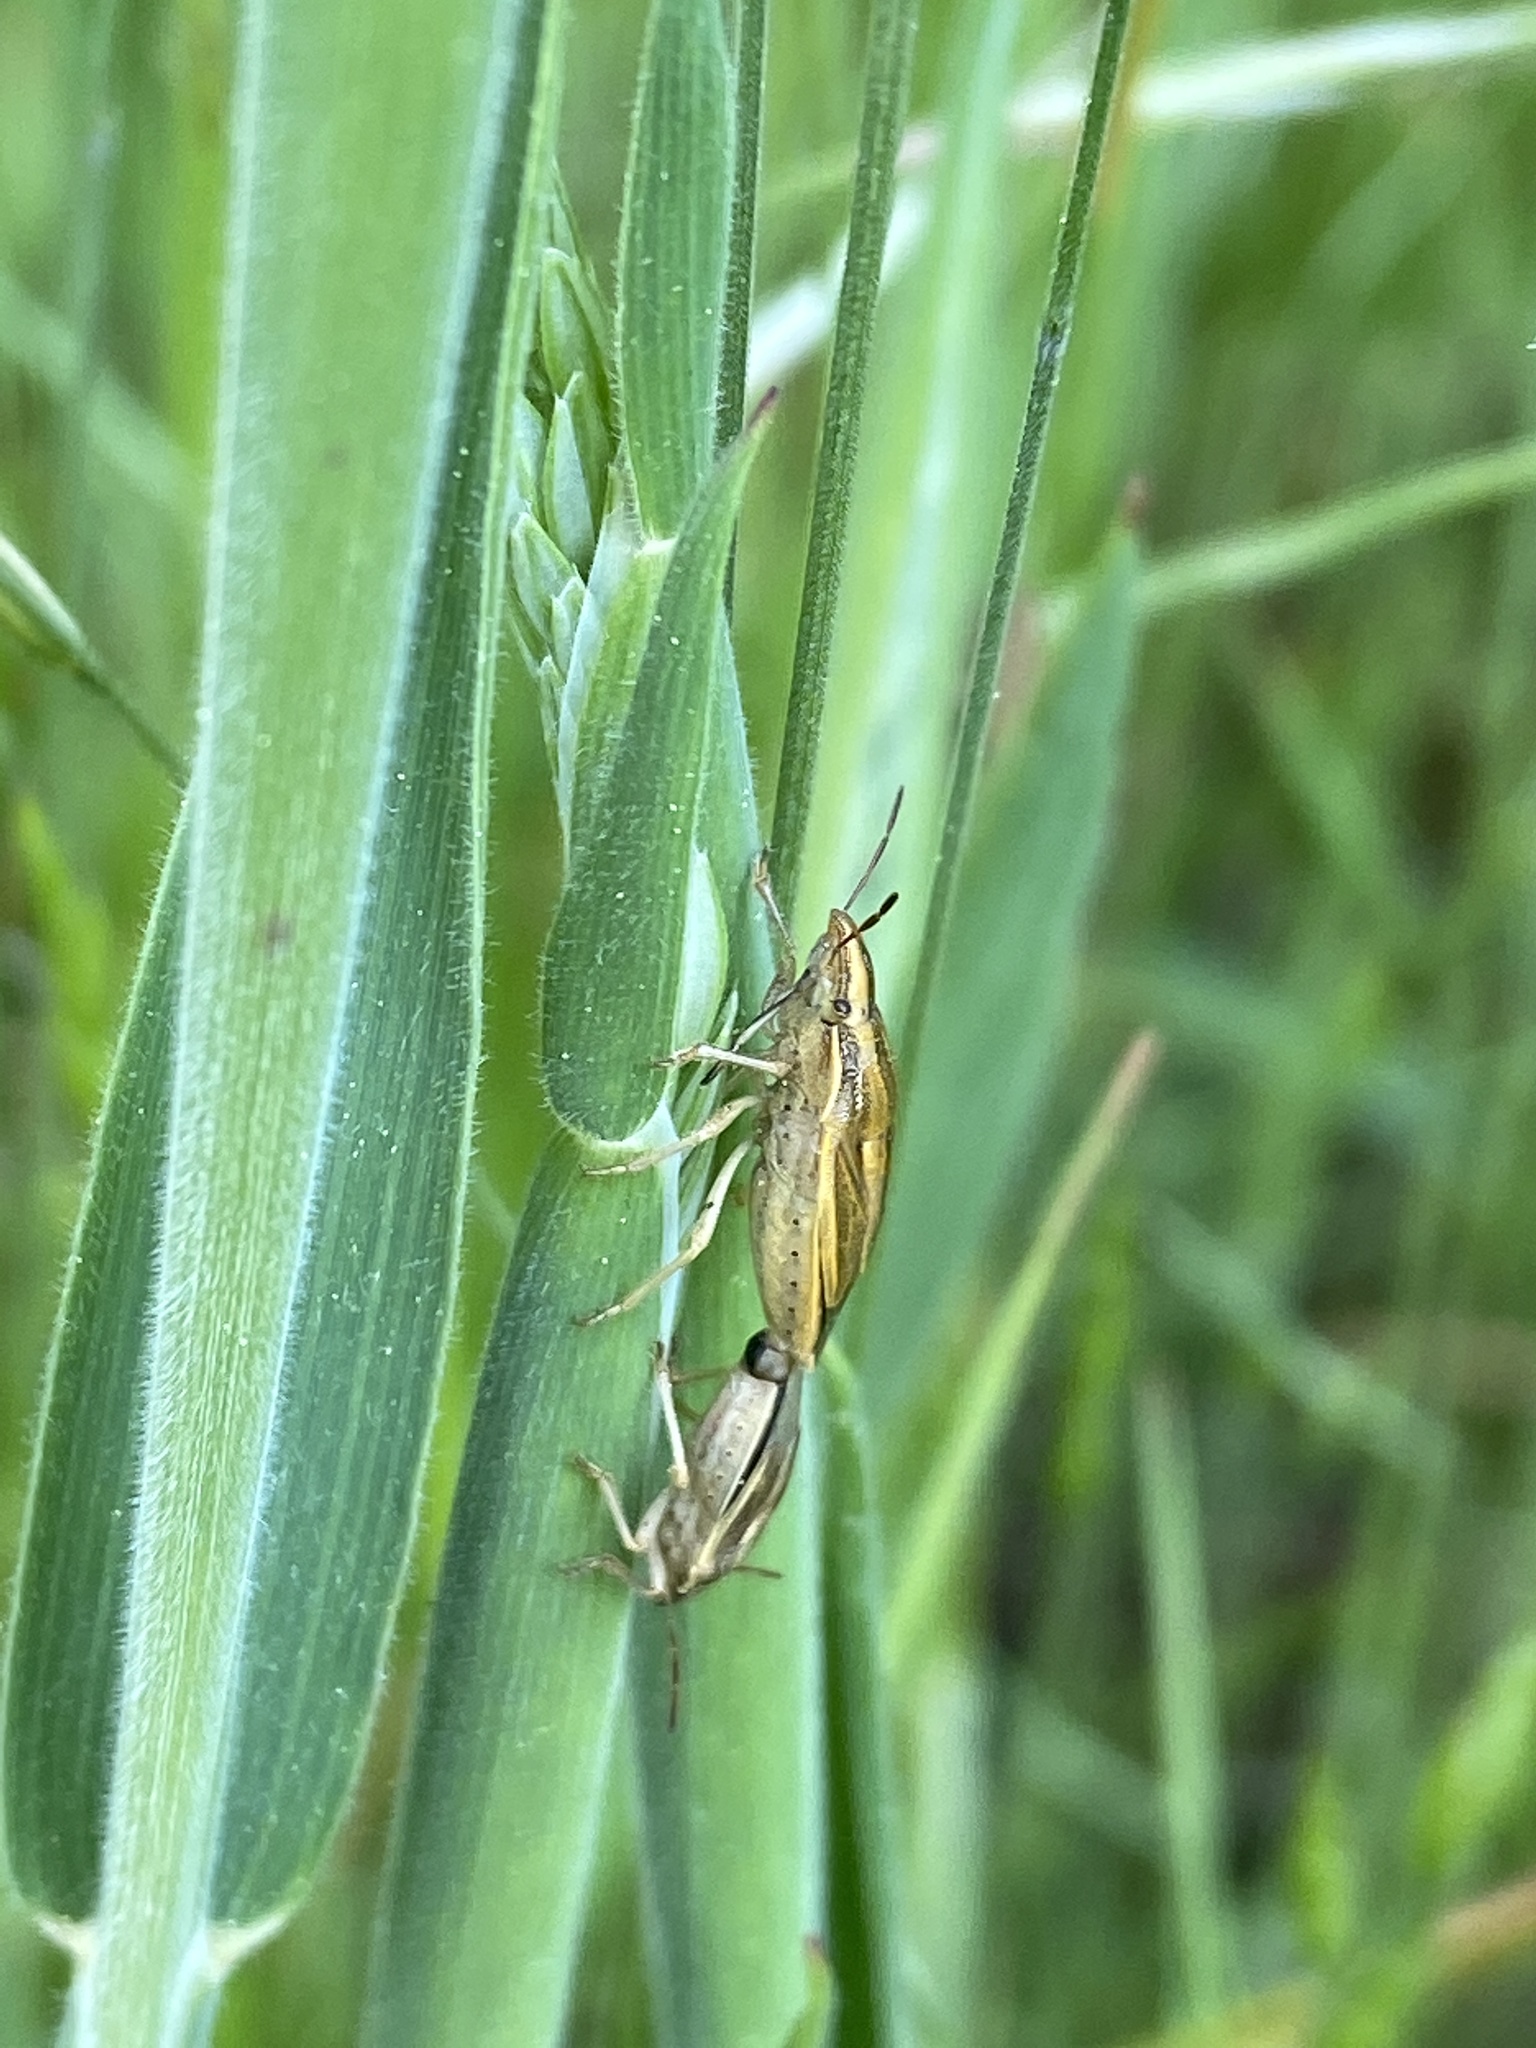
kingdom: Animalia
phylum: Arthropoda
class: Insecta
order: Hemiptera
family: Pentatomidae
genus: Aelia
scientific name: Aelia acuminata
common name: Bishop's mitre
